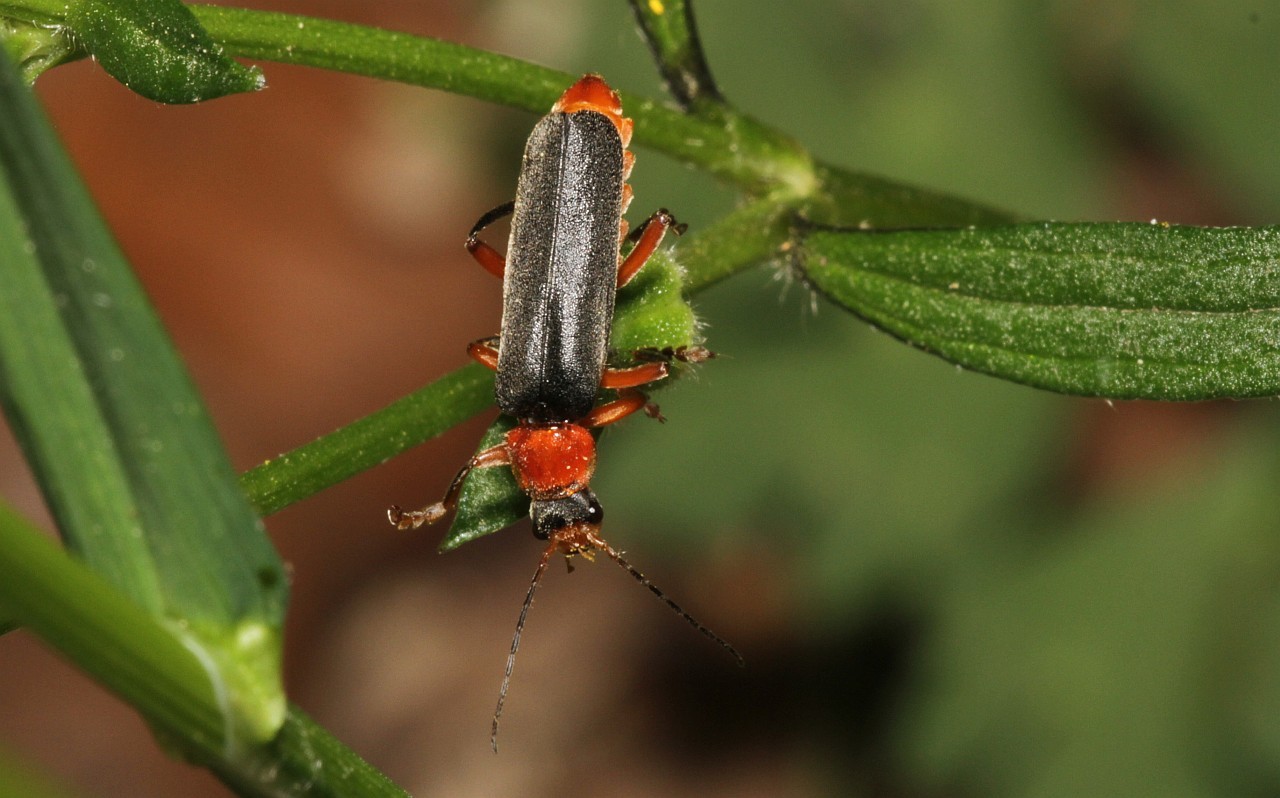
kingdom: Animalia
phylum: Arthropoda
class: Insecta
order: Coleoptera
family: Cantharidae
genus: Cantharis
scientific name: Cantharis pellucida
